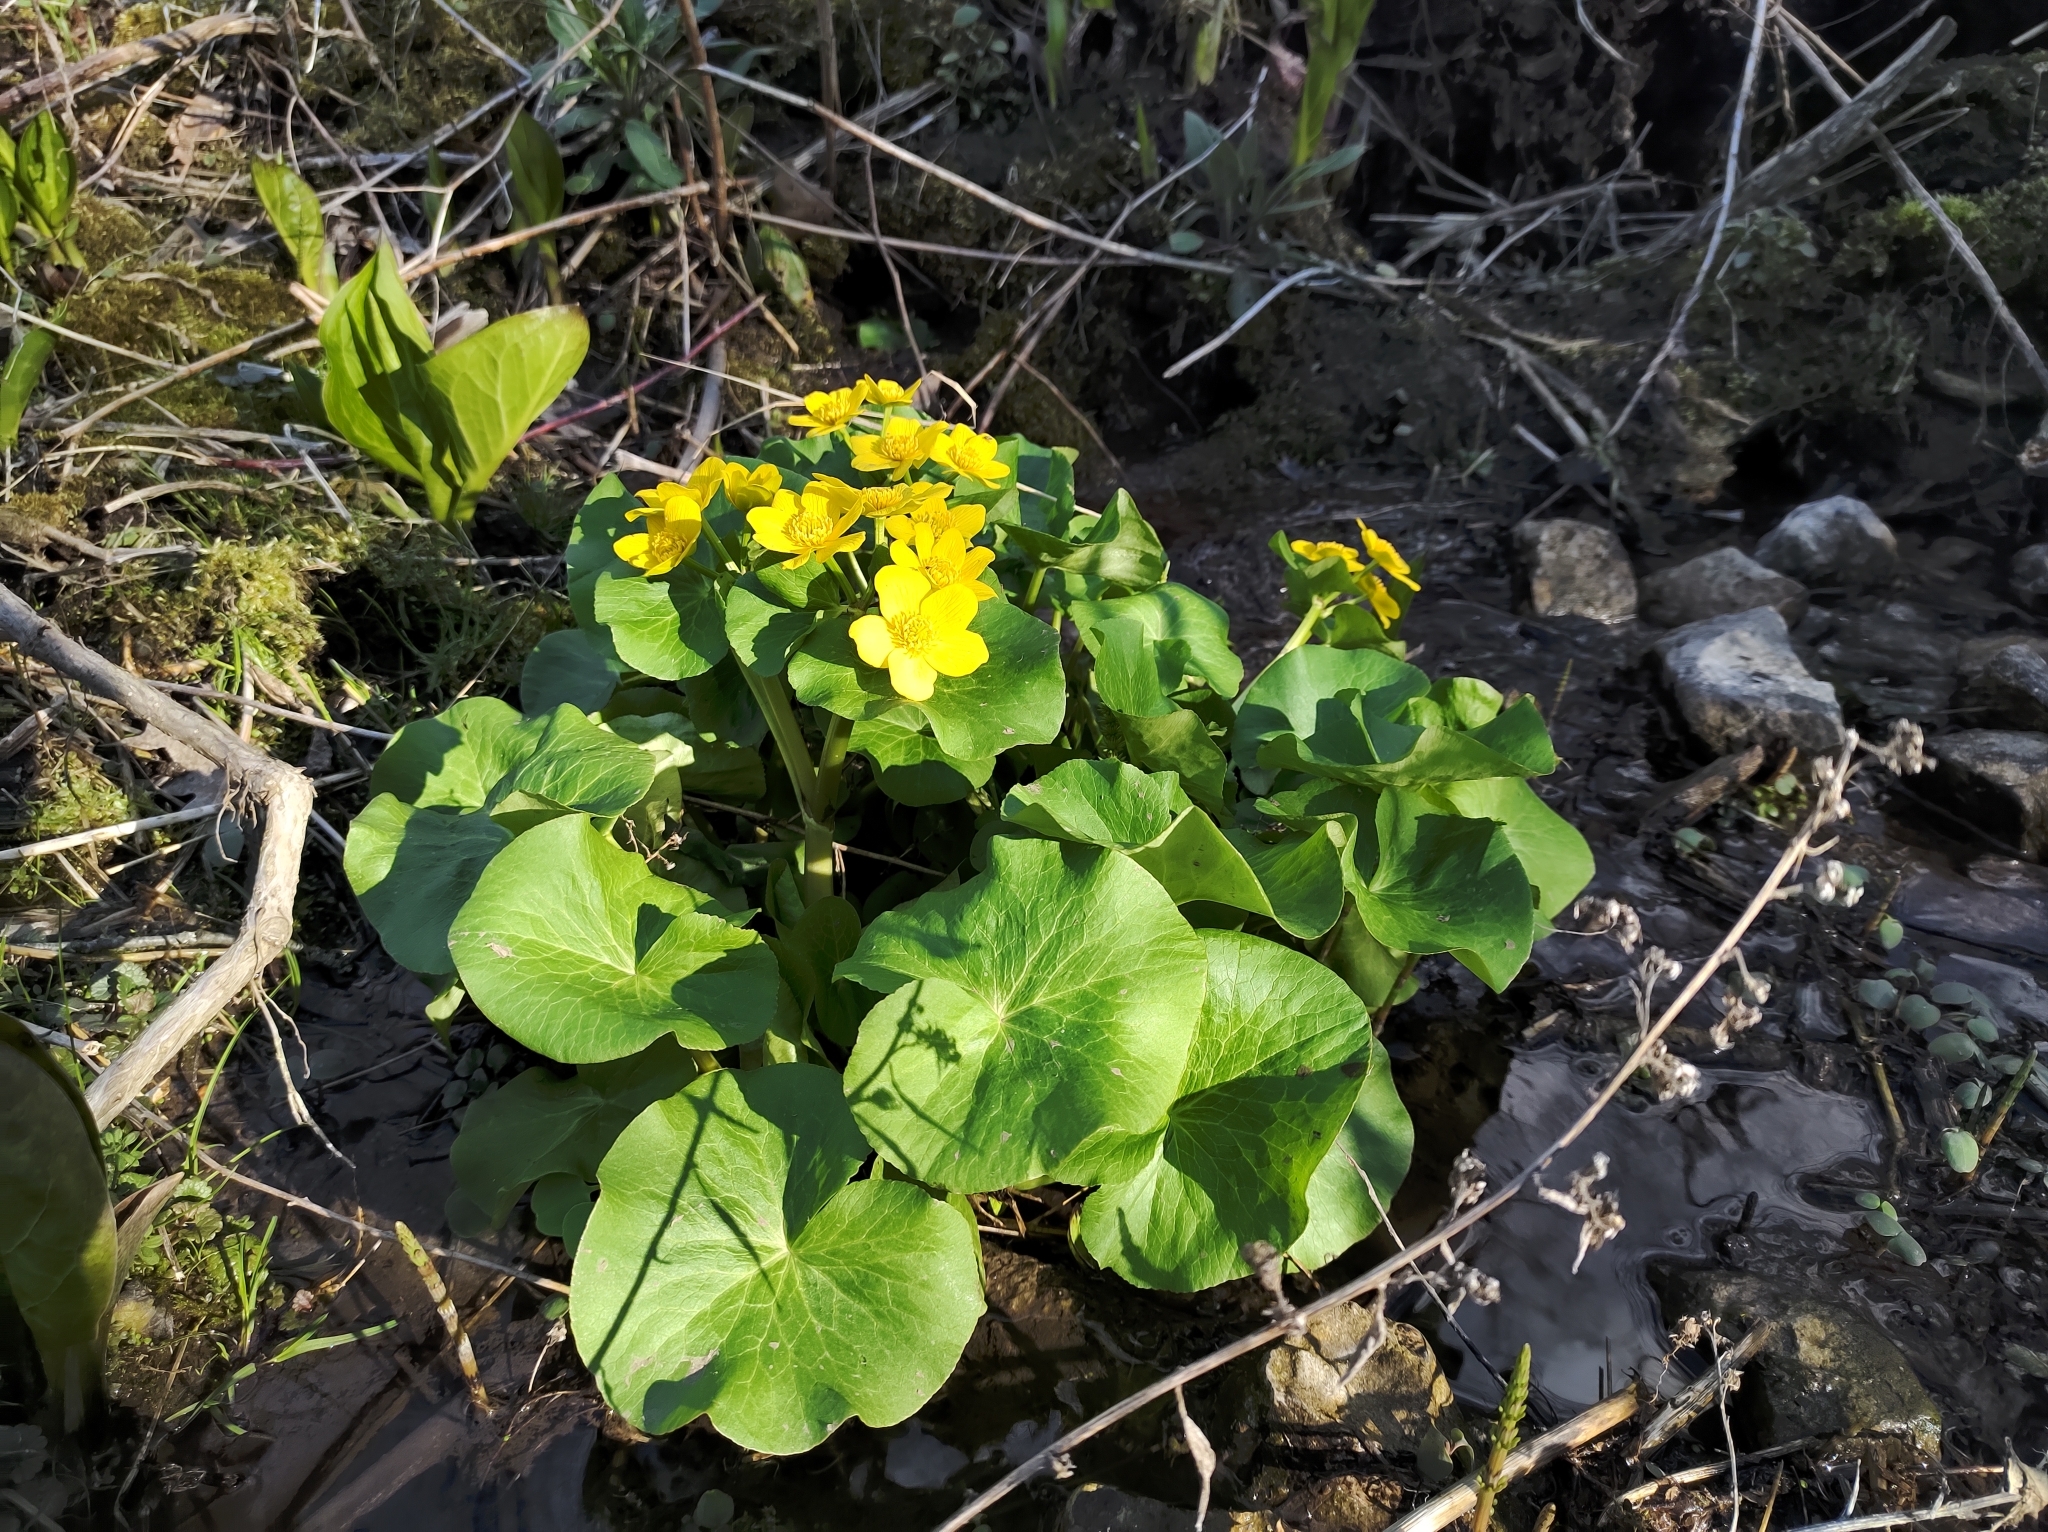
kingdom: Plantae
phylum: Tracheophyta
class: Magnoliopsida
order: Ranunculales
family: Ranunculaceae
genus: Caltha
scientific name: Caltha palustris
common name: Marsh marigold
